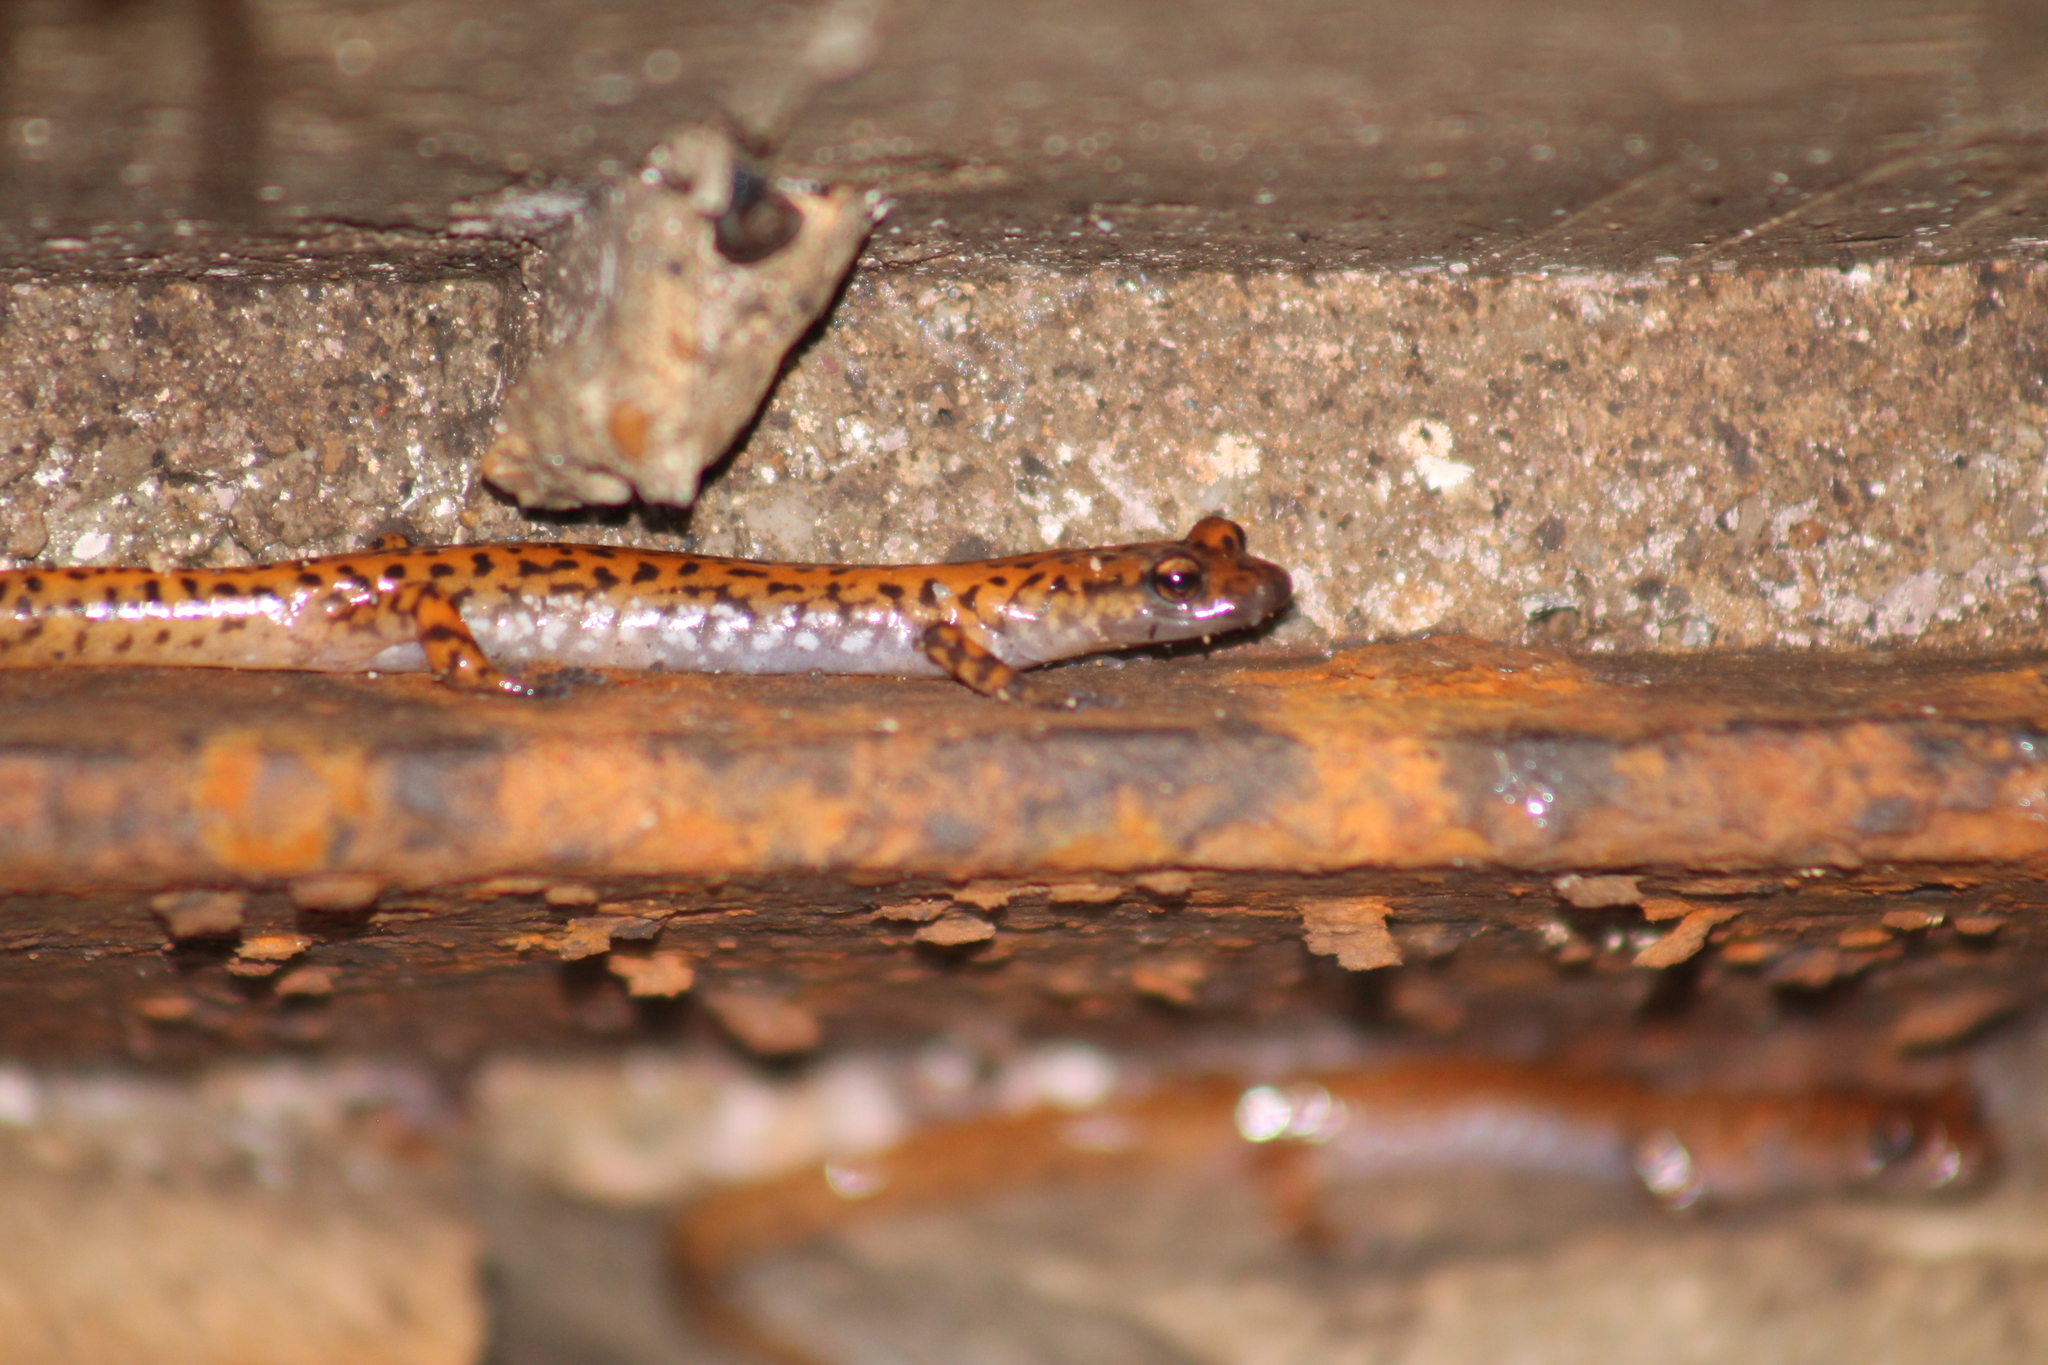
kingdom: Animalia
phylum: Chordata
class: Amphibia
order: Caudata
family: Plethodontidae
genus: Eurycea
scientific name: Eurycea lucifuga
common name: Cave salamander
